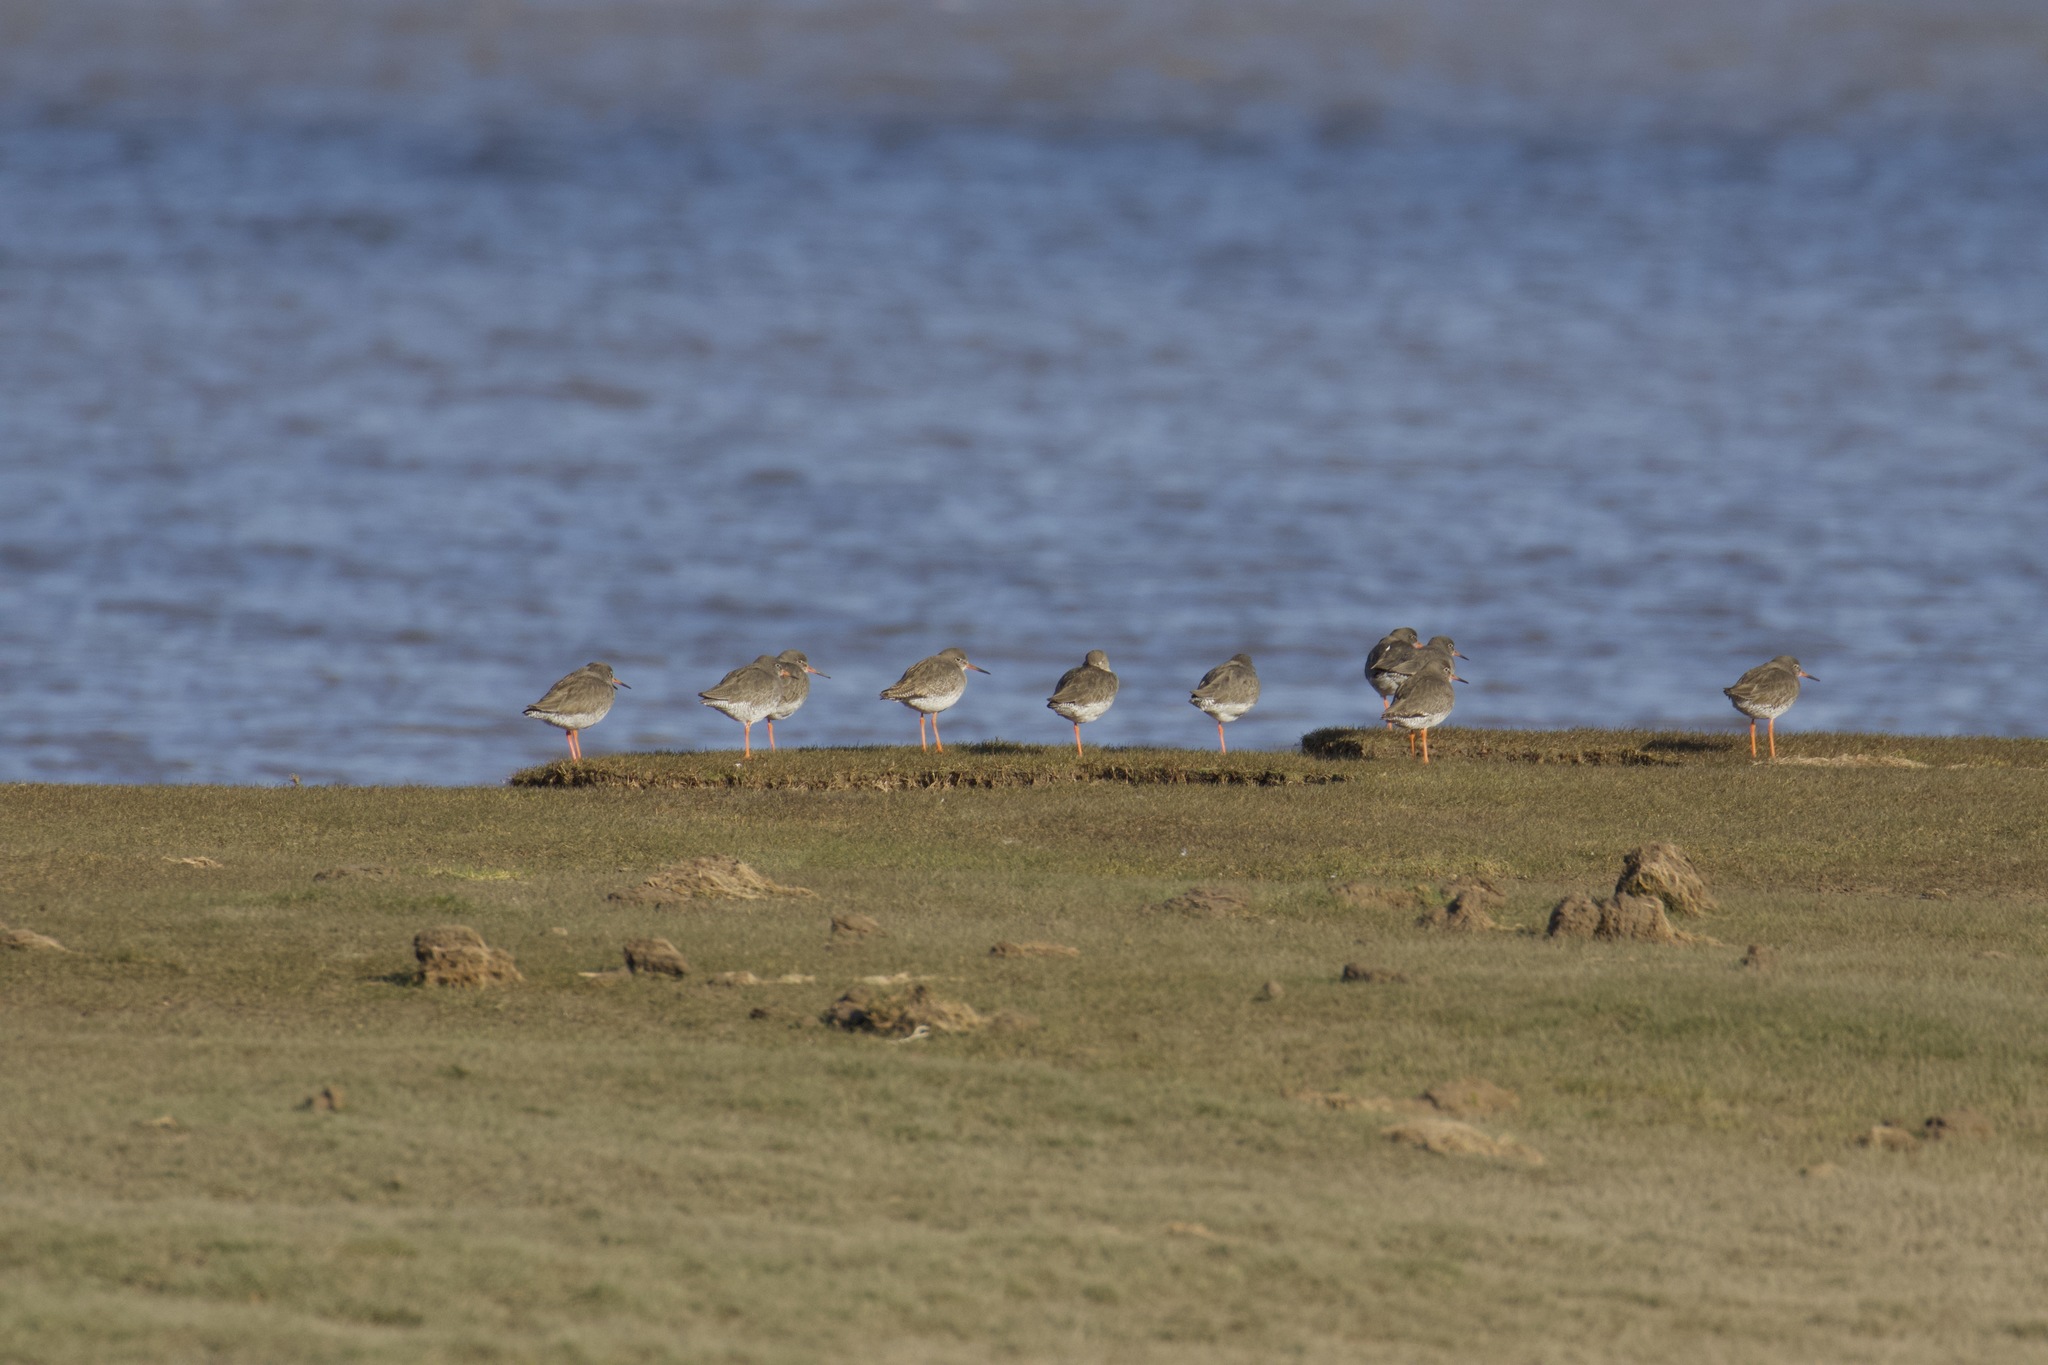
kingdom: Animalia
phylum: Chordata
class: Aves
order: Charadriiformes
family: Scolopacidae
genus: Tringa
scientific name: Tringa totanus
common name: Common redshank
